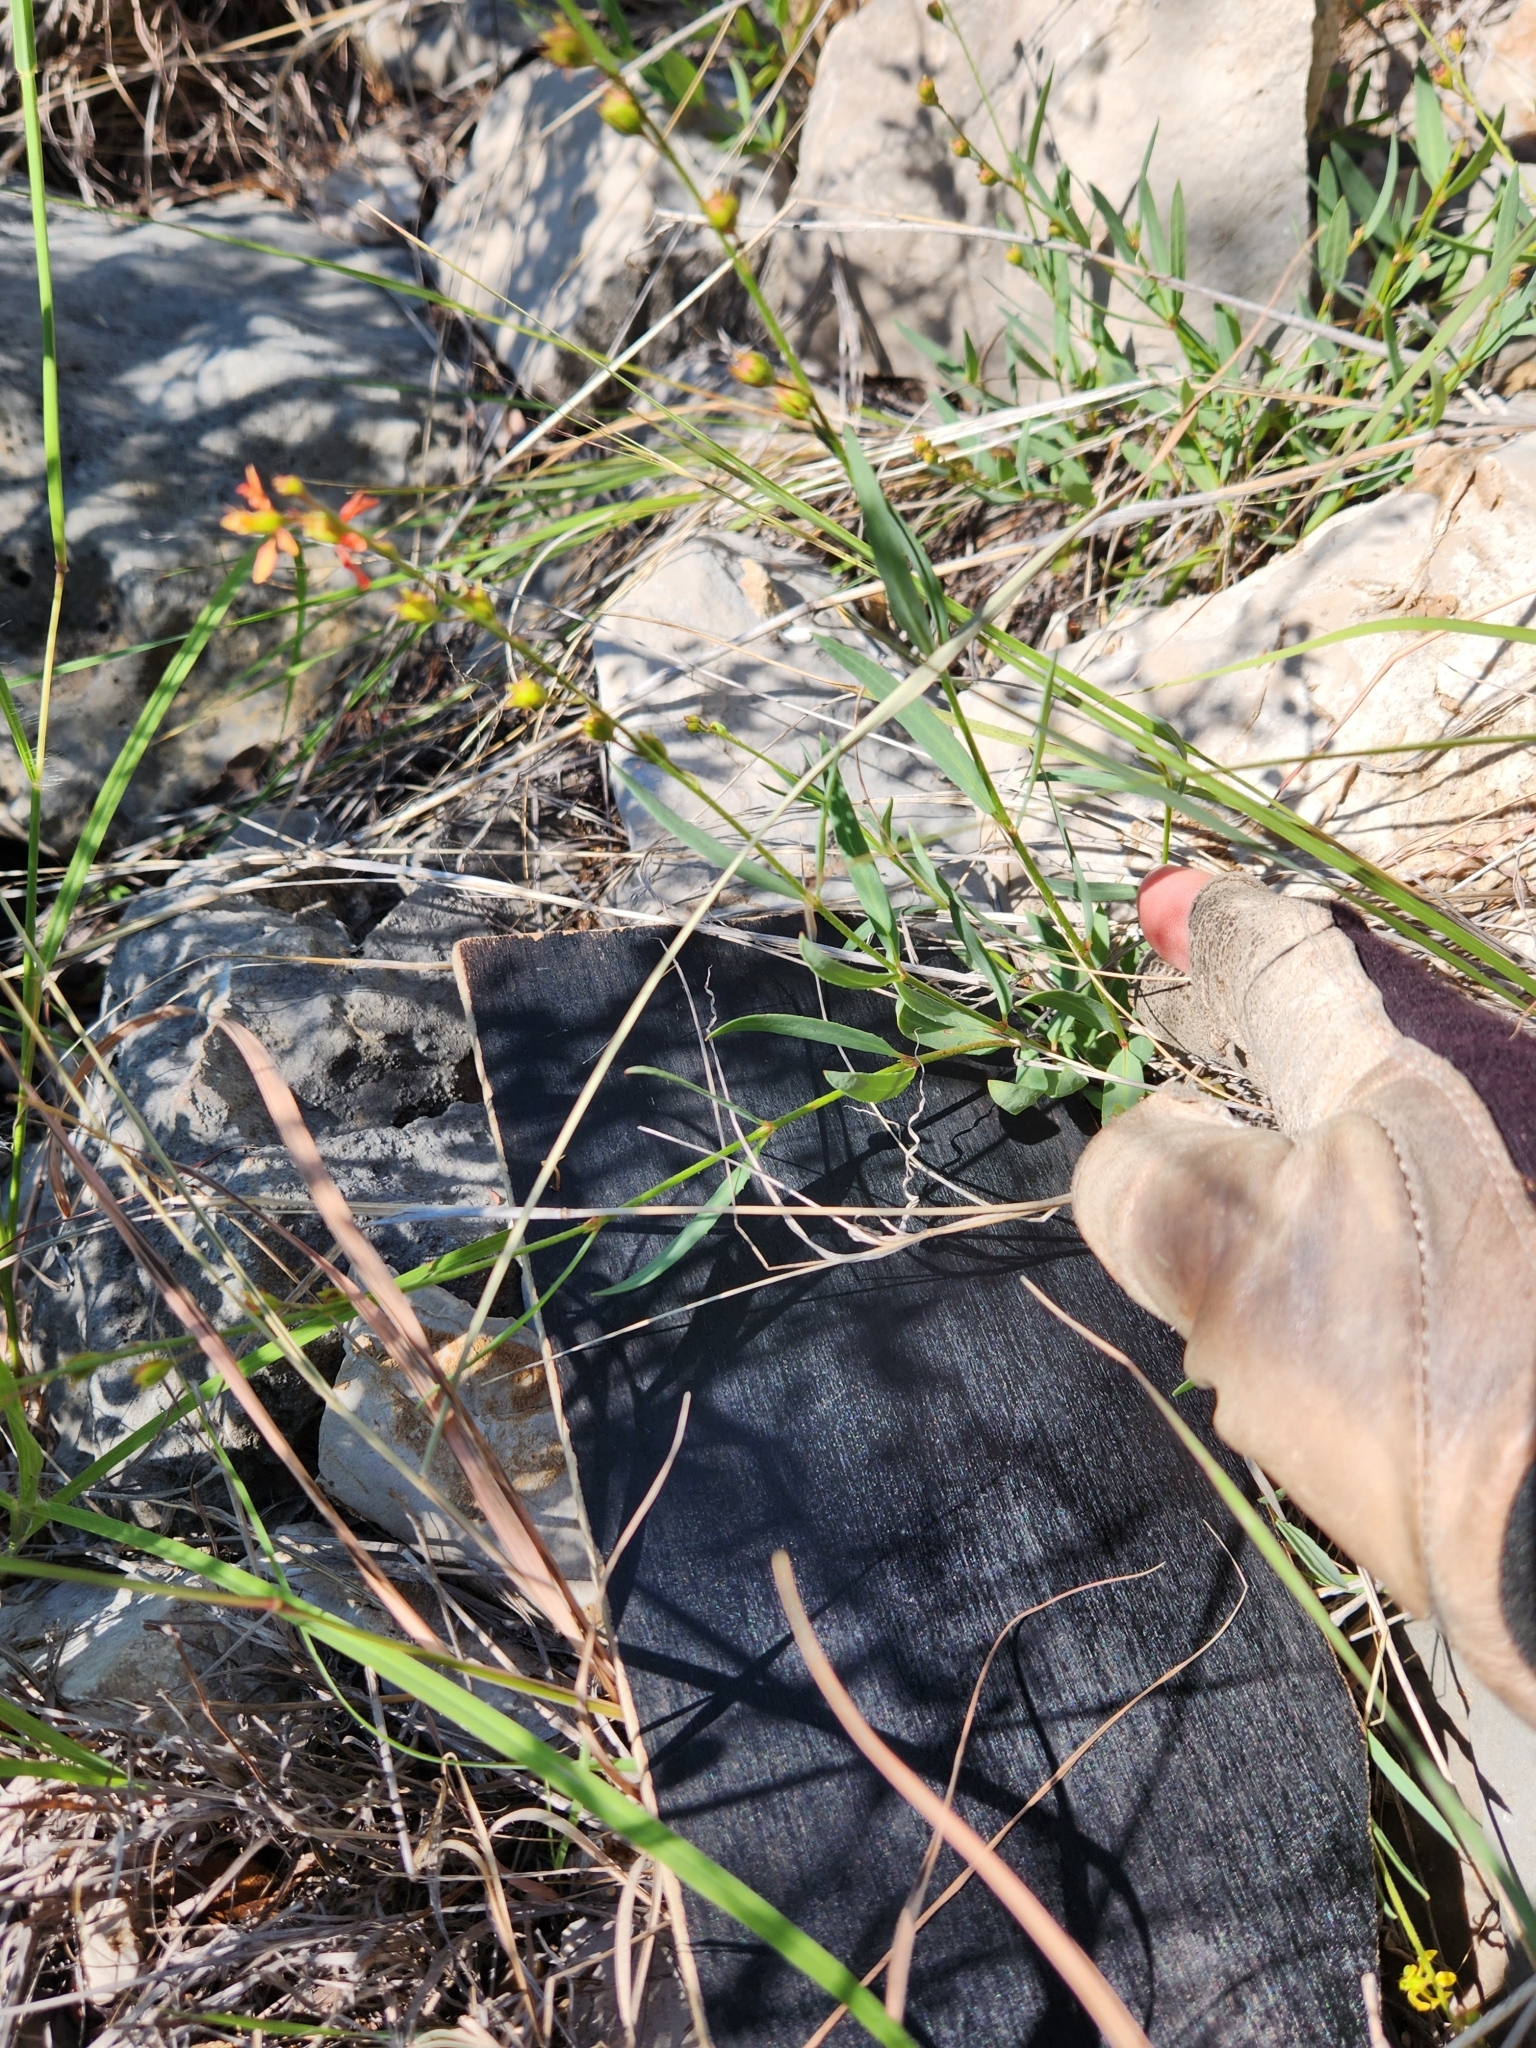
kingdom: Plantae
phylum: Tracheophyta
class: Magnoliopsida
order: Malpighiales
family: Malpighiaceae
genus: Galphimia
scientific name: Galphimia angustifolia
